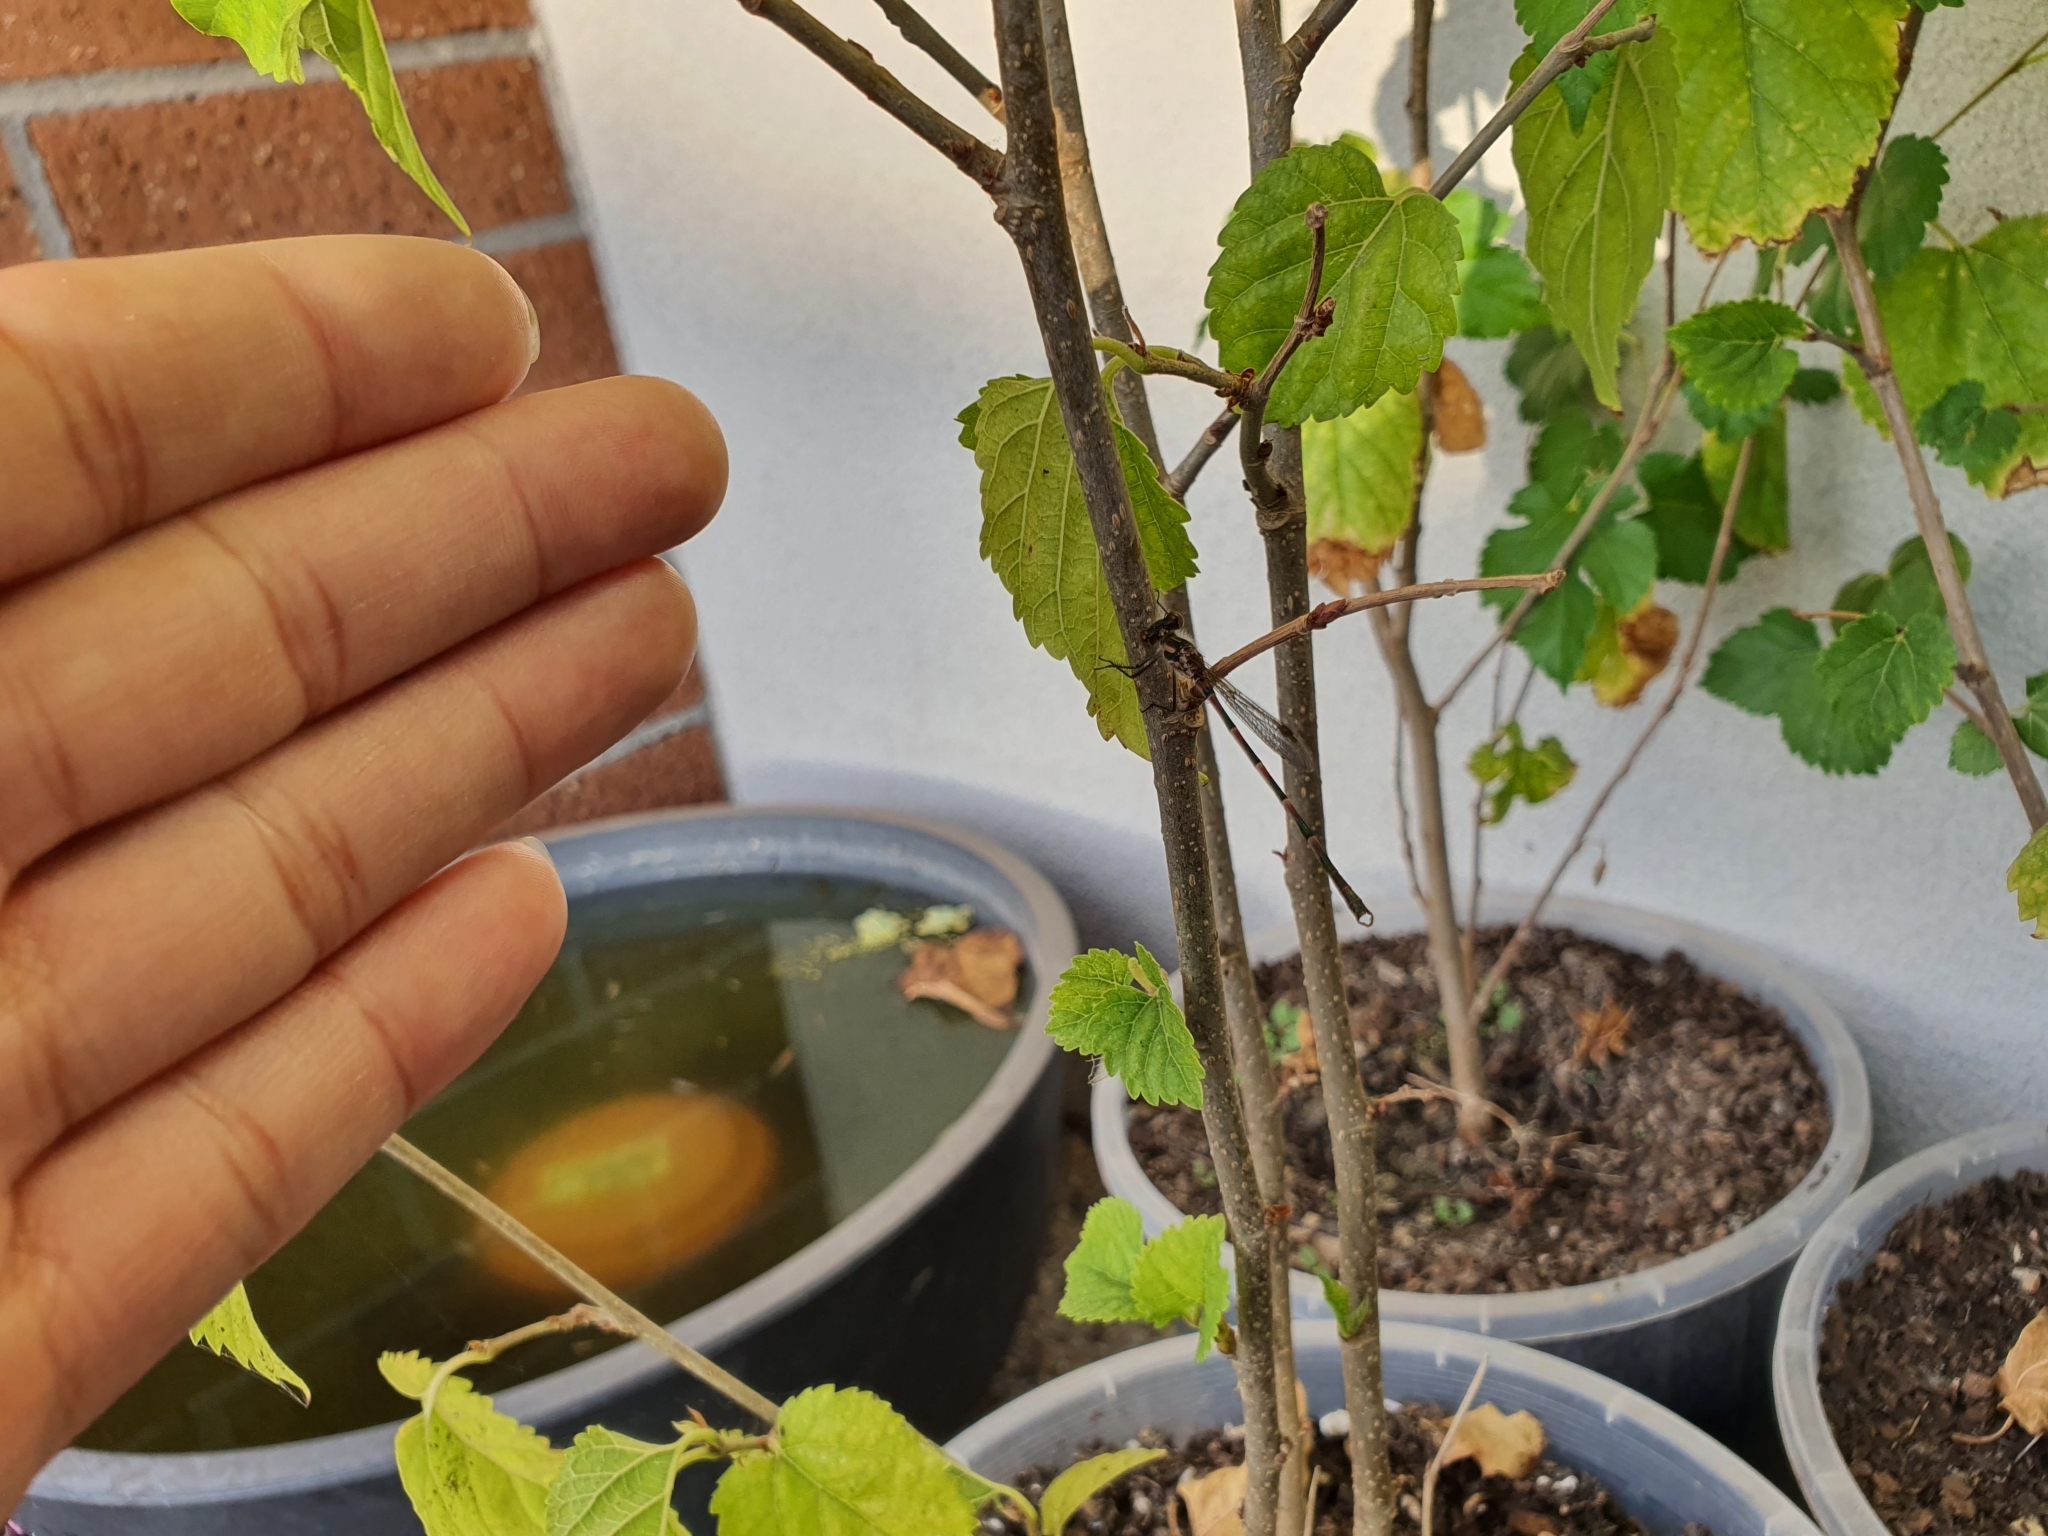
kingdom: Animalia
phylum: Arthropoda
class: Insecta
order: Odonata
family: Lestidae
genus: Austrolestes
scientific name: Austrolestes annulosus
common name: Blue ringtail
